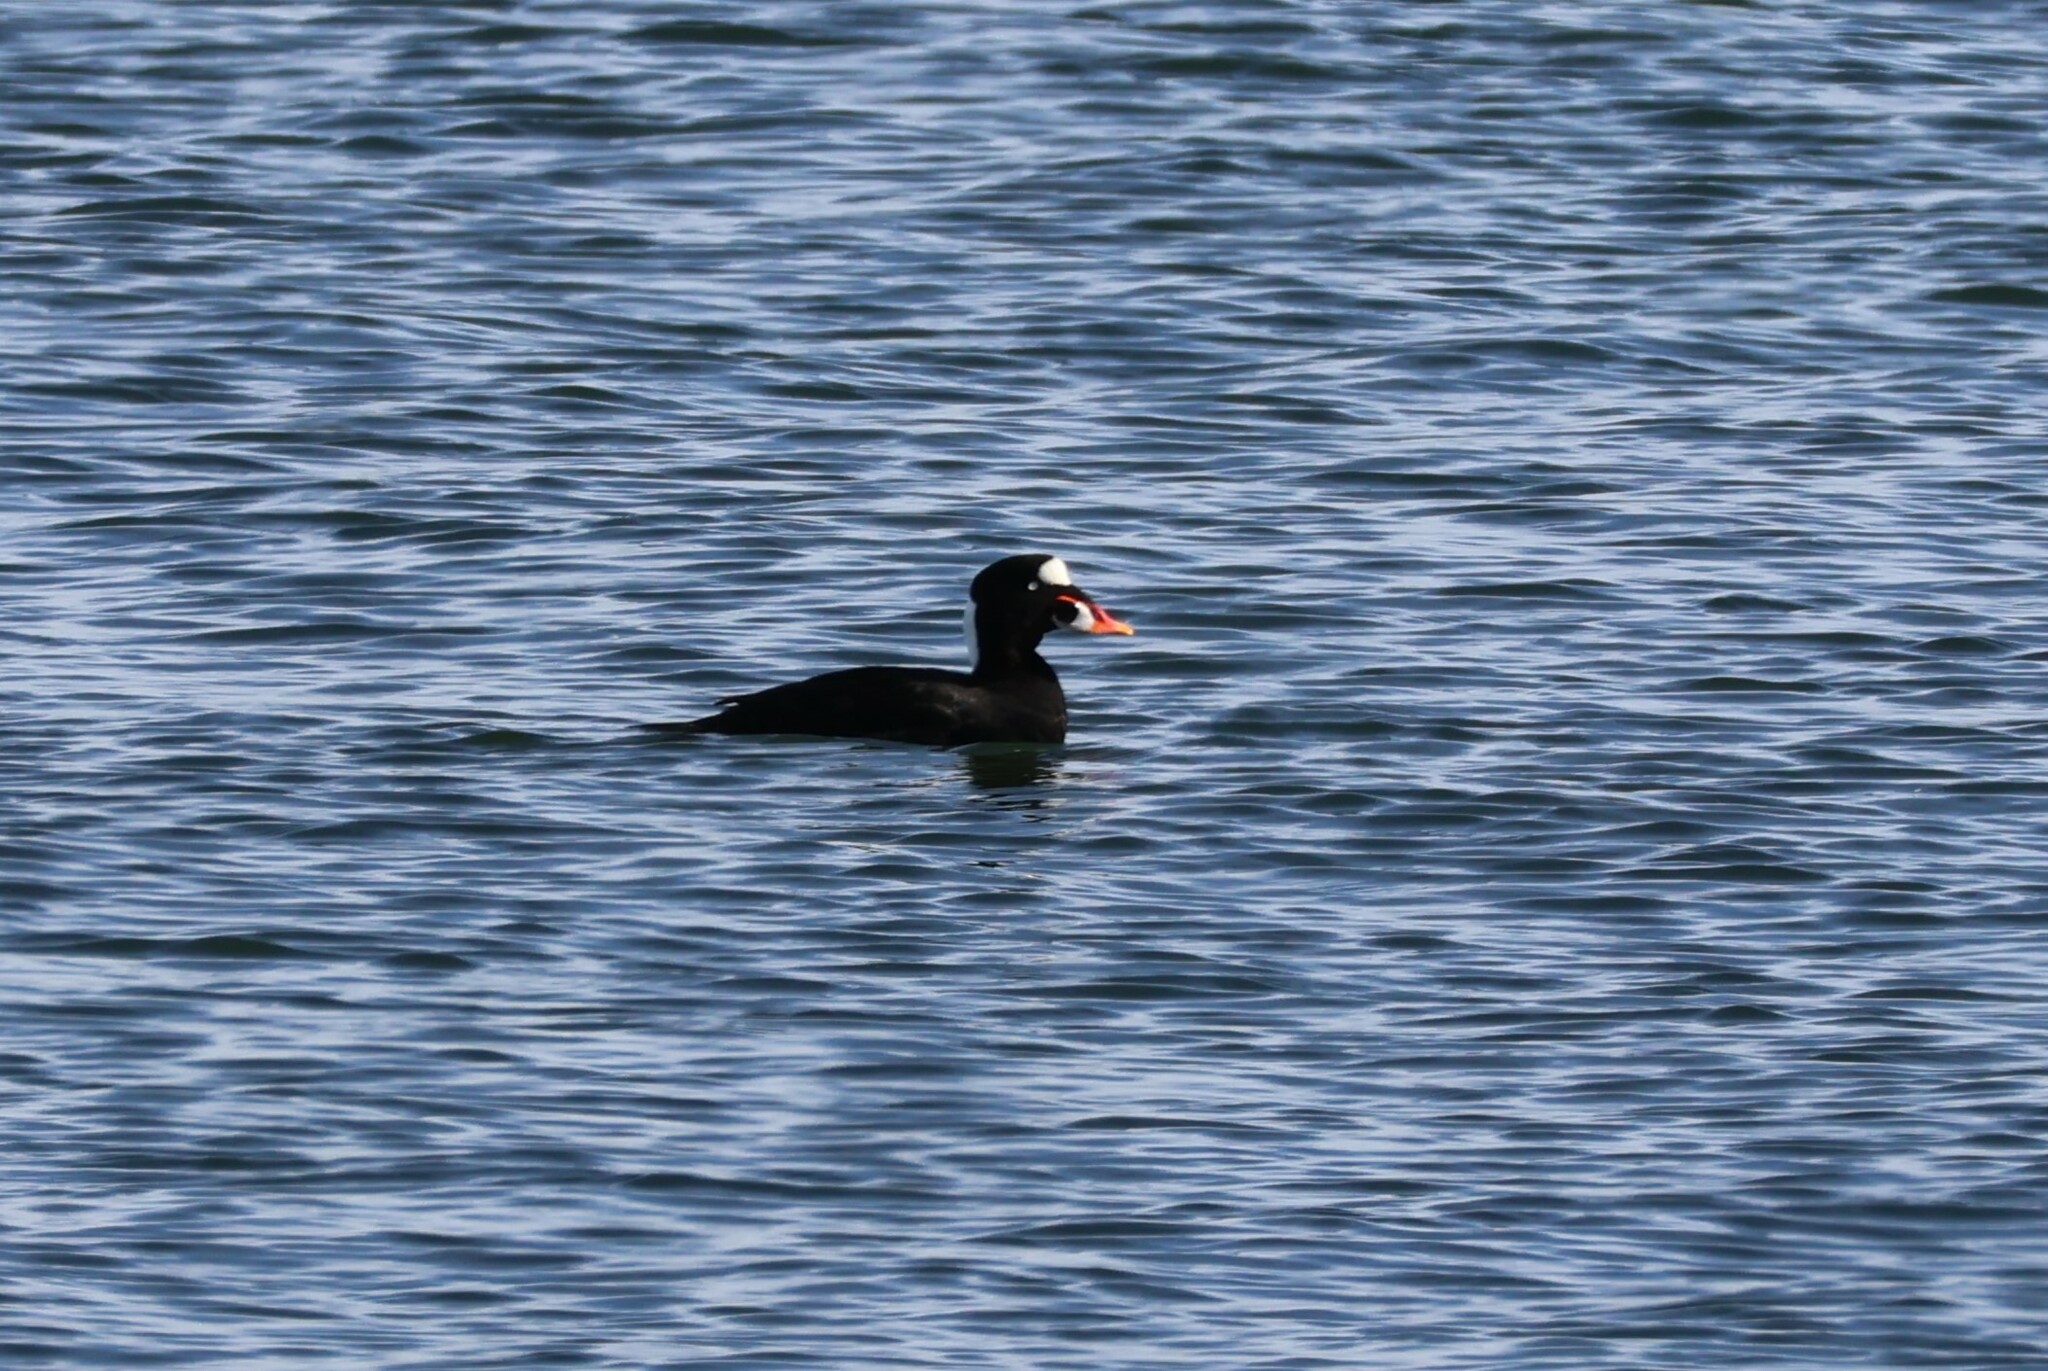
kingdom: Animalia
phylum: Chordata
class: Aves
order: Anseriformes
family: Anatidae
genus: Melanitta
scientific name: Melanitta perspicillata
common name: Surf scoter
